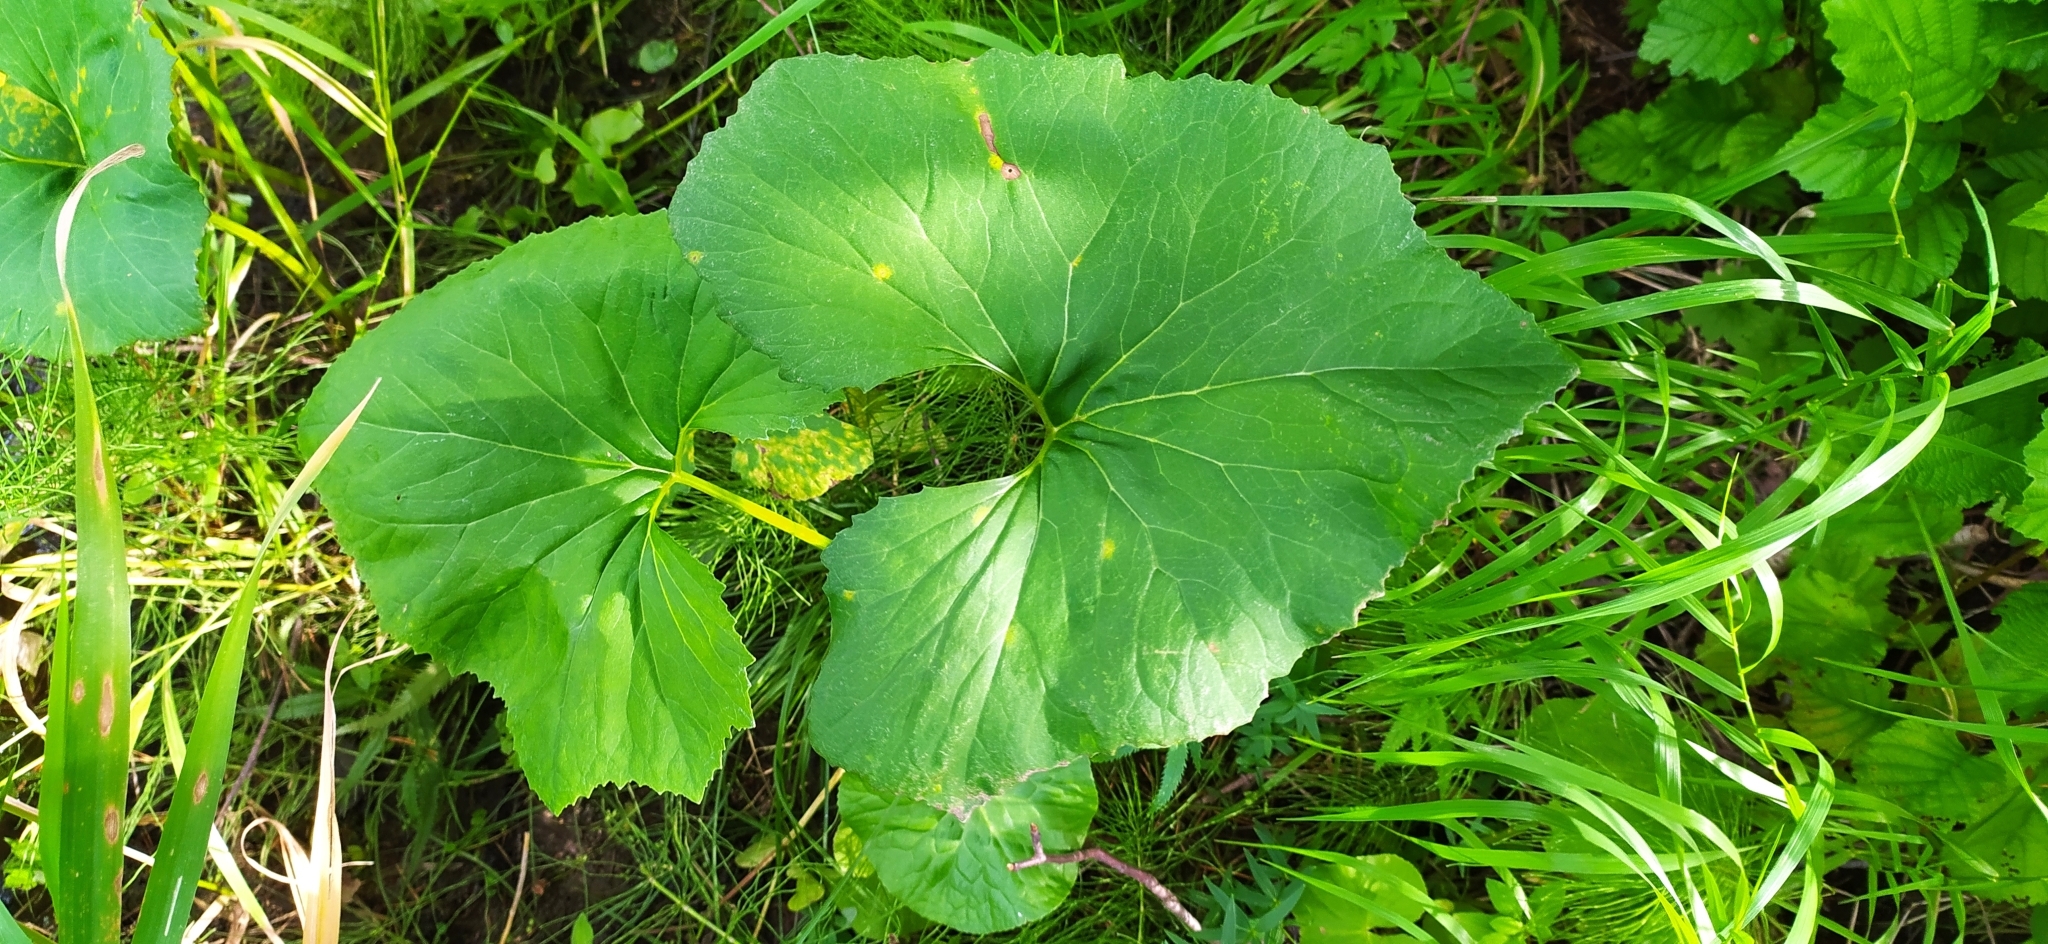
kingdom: Plantae
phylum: Tracheophyta
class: Magnoliopsida
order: Asterales
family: Asteraceae
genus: Petasites
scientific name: Petasites radiatus
